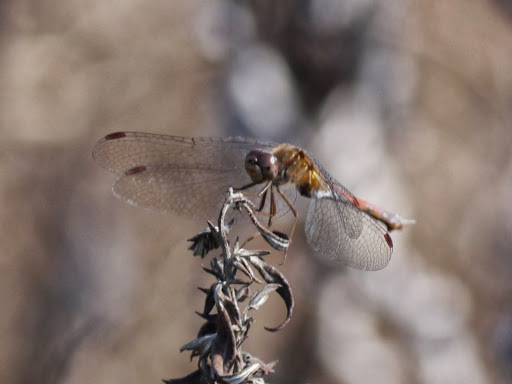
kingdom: Animalia
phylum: Arthropoda
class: Insecta
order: Odonata
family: Libellulidae
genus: Sympetrum
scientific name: Sympetrum vicinum
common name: Autumn meadowhawk
